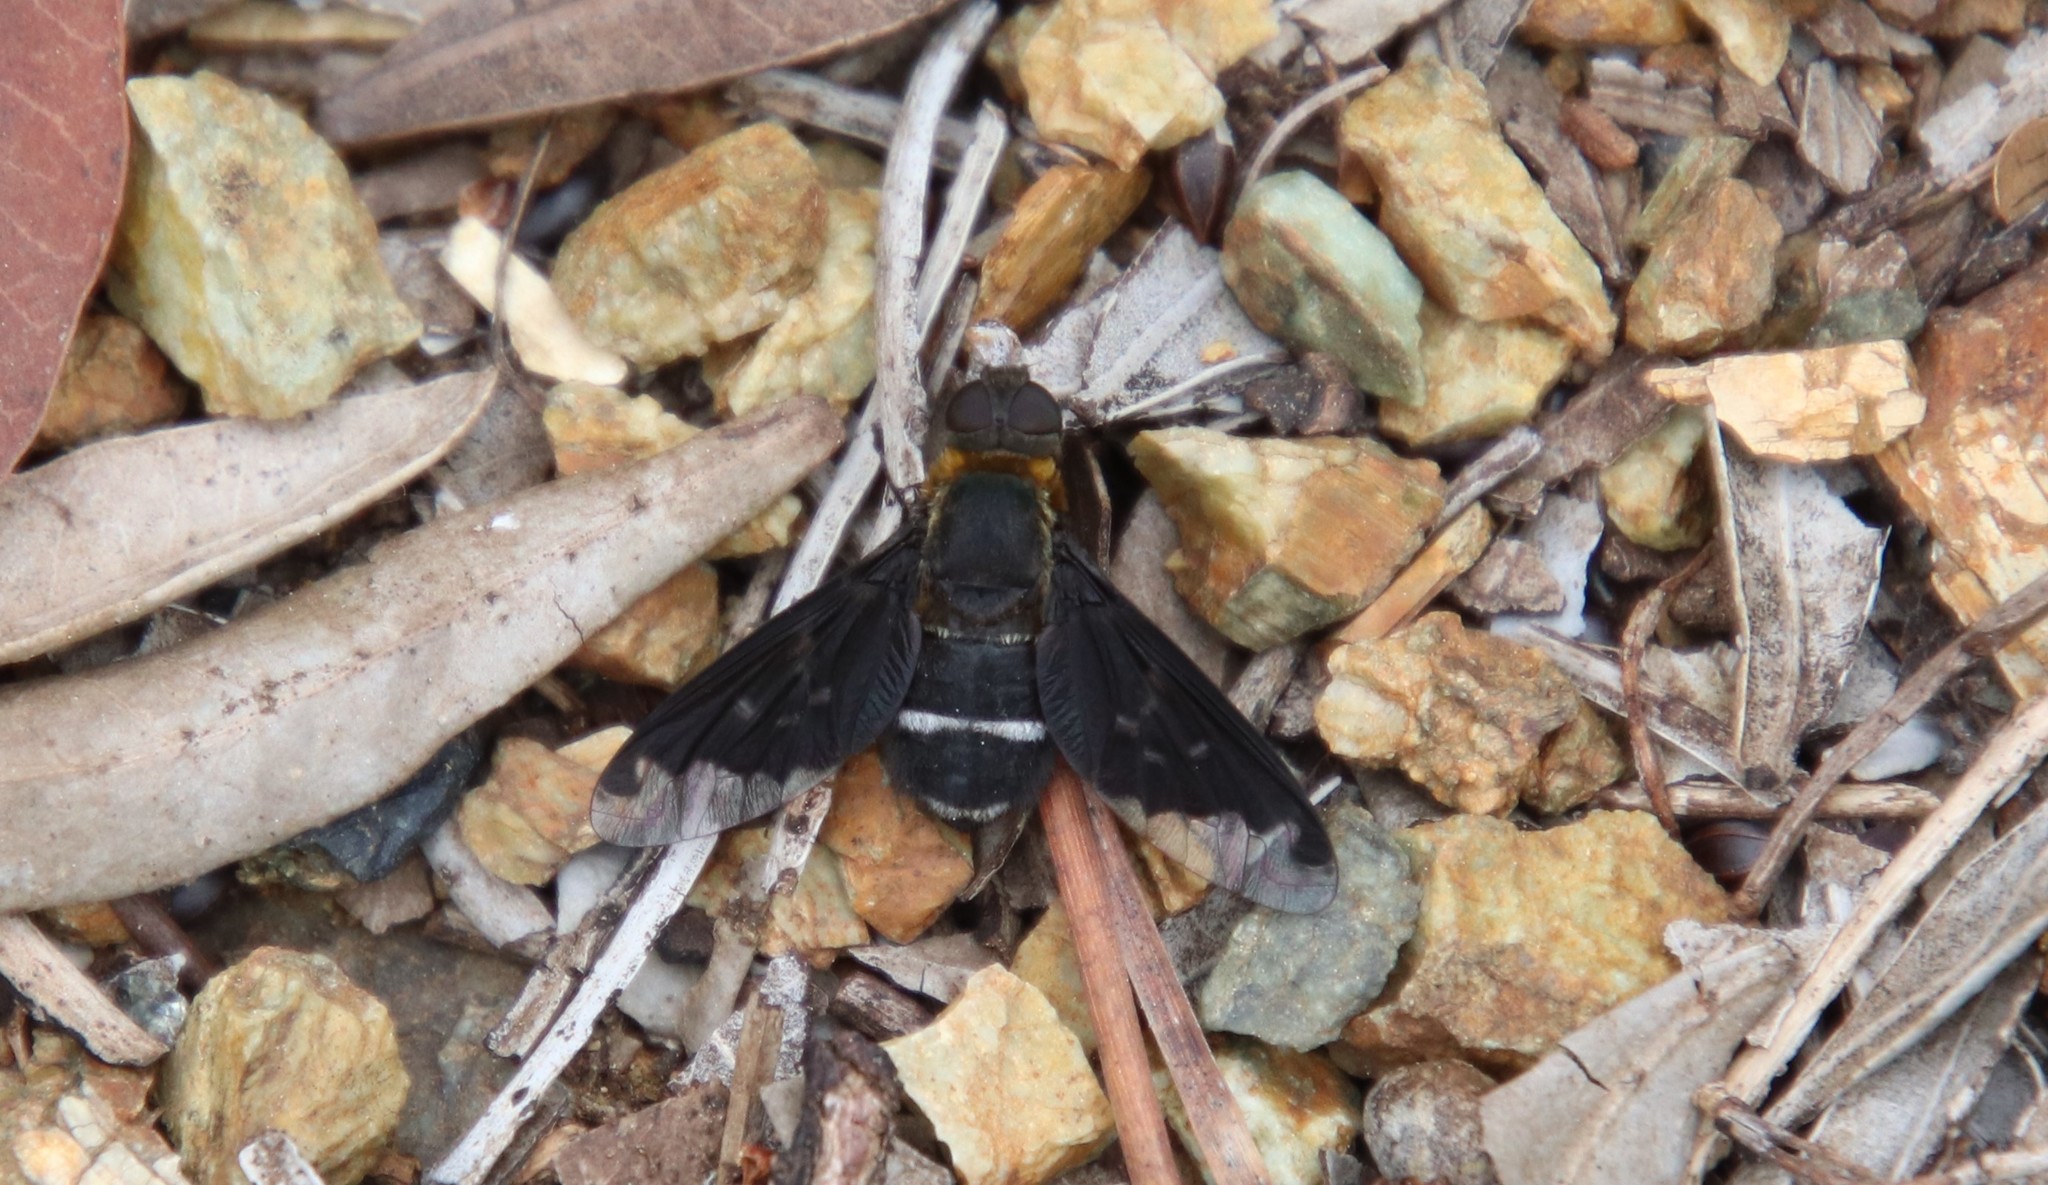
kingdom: Animalia
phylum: Arthropoda
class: Insecta
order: Diptera
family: Bombyliidae
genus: Hemipenthes
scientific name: Hemipenthes velutina
